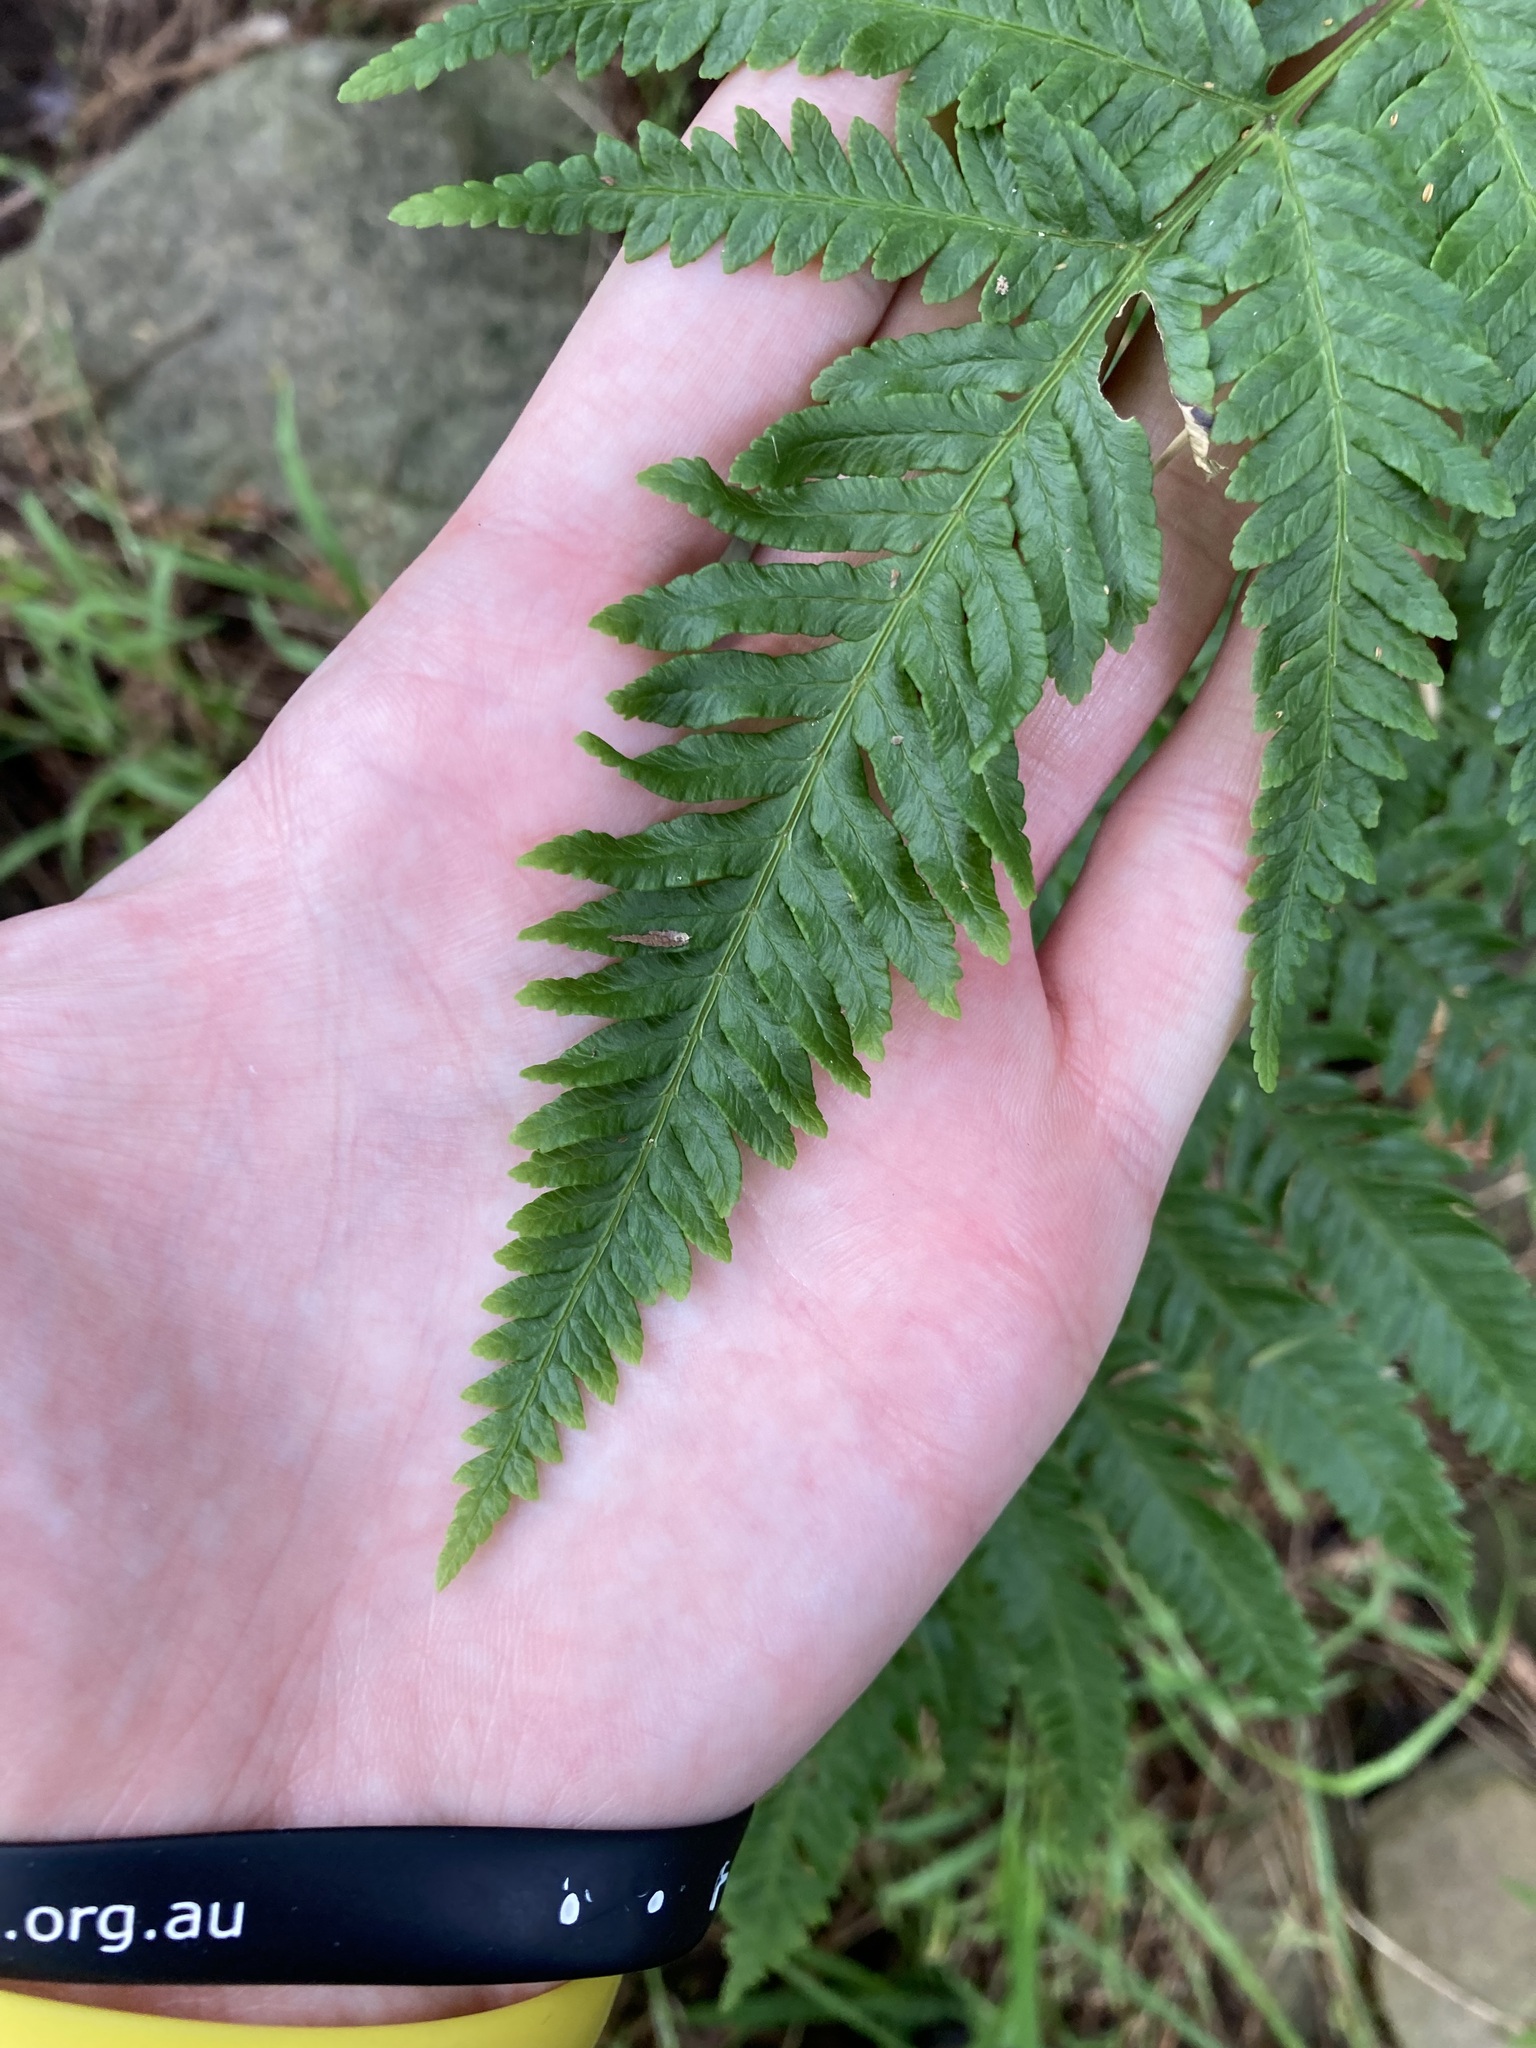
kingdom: Plantae
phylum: Tracheophyta
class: Polypodiopsida
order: Polypodiales
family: Pteridaceae
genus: Pteris
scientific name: Pteris tremula
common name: Australian brake
